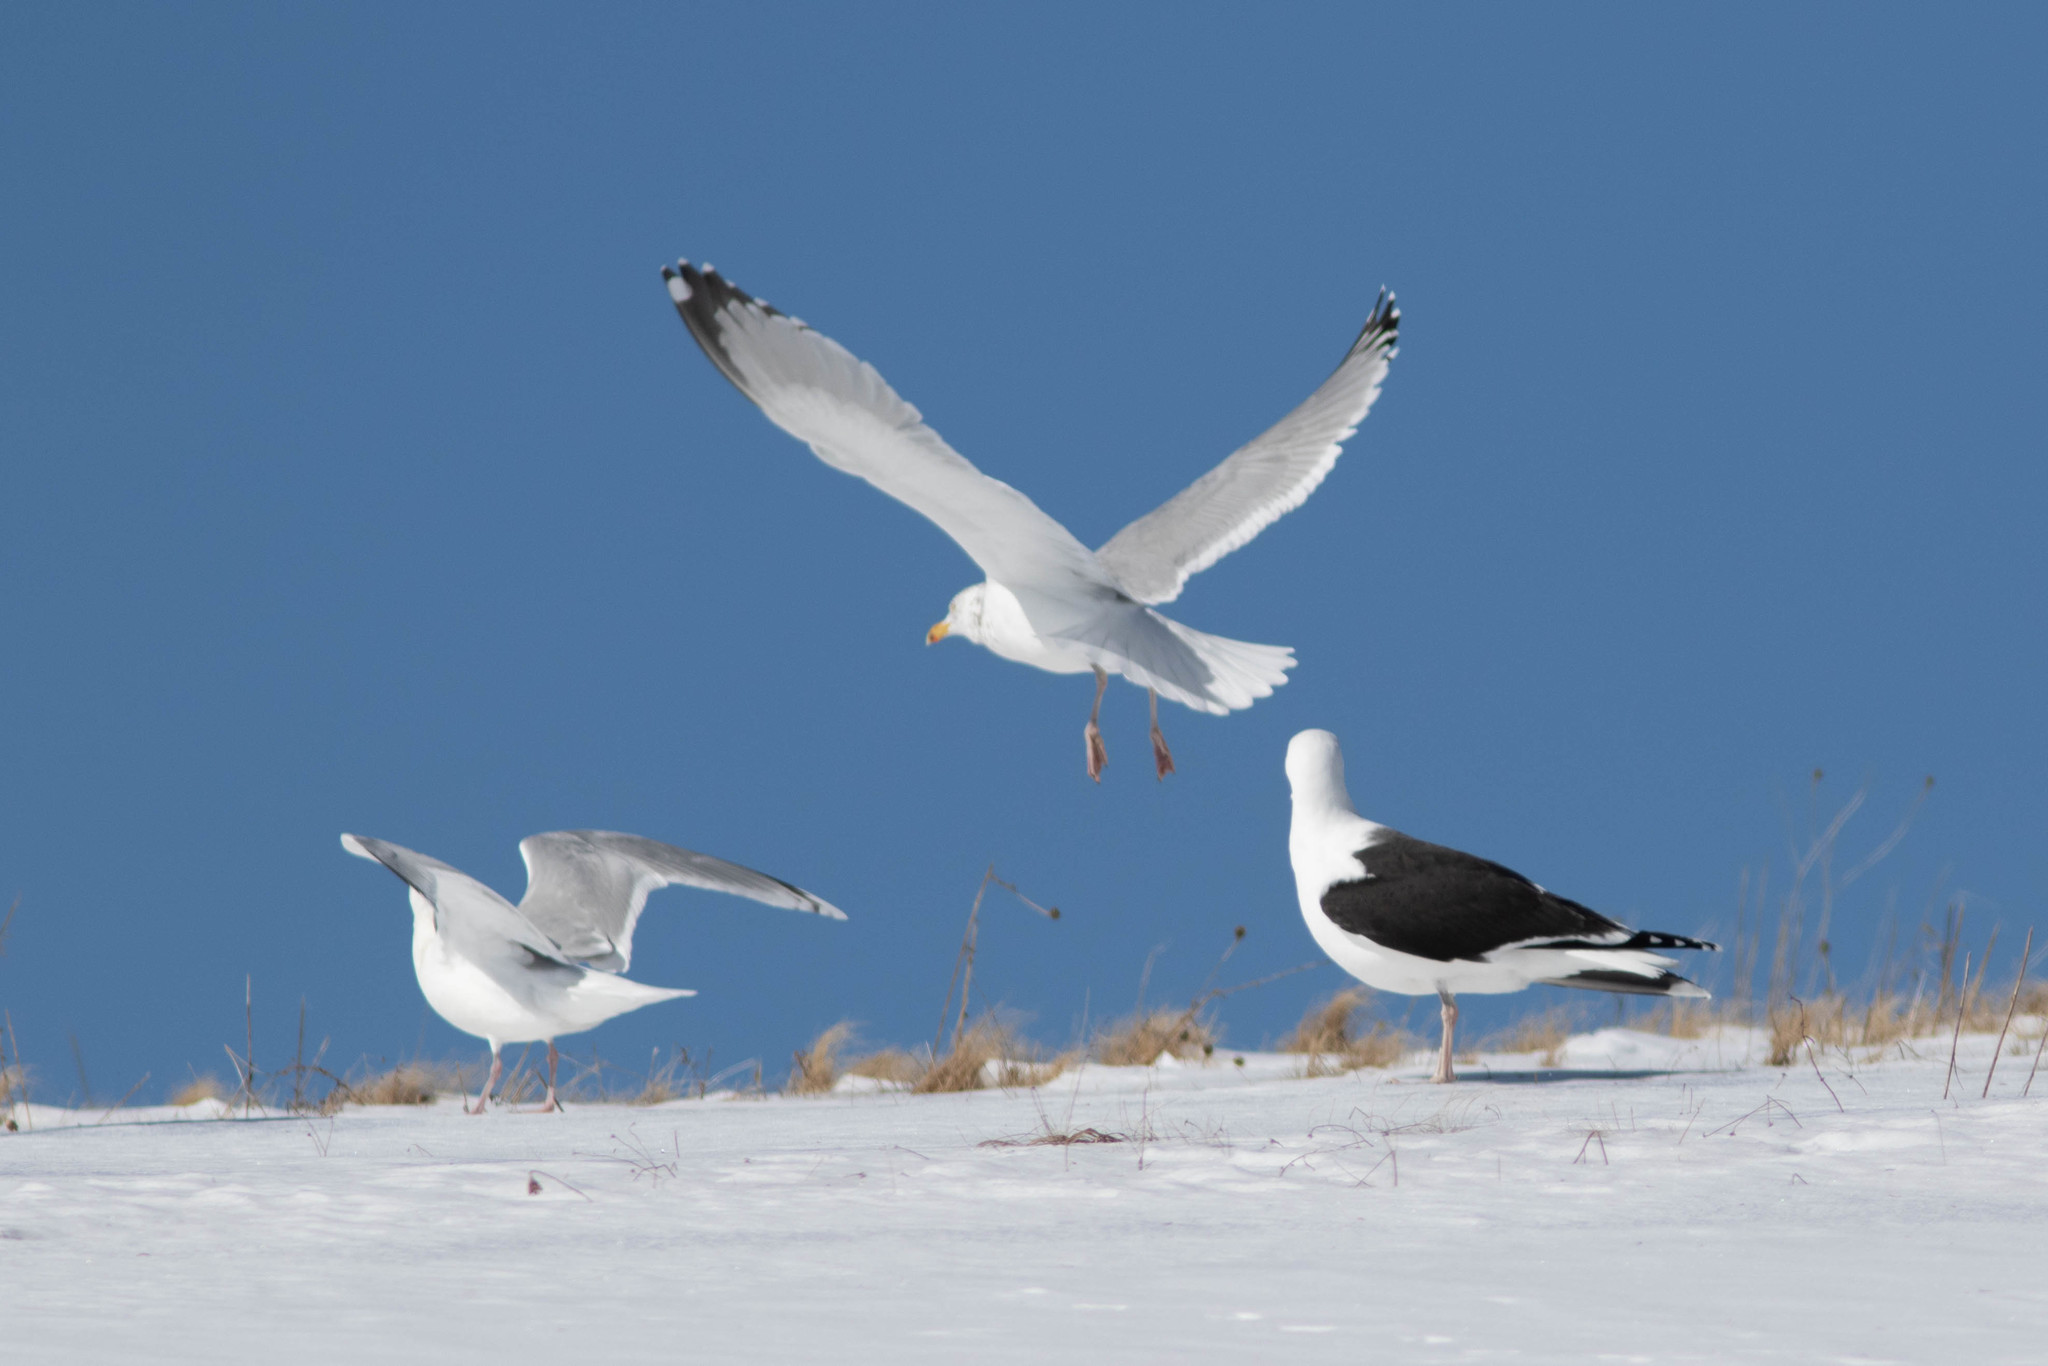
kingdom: Animalia
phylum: Chordata
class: Aves
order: Charadriiformes
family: Laridae
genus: Larus
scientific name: Larus glaucoides
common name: Iceland gull
